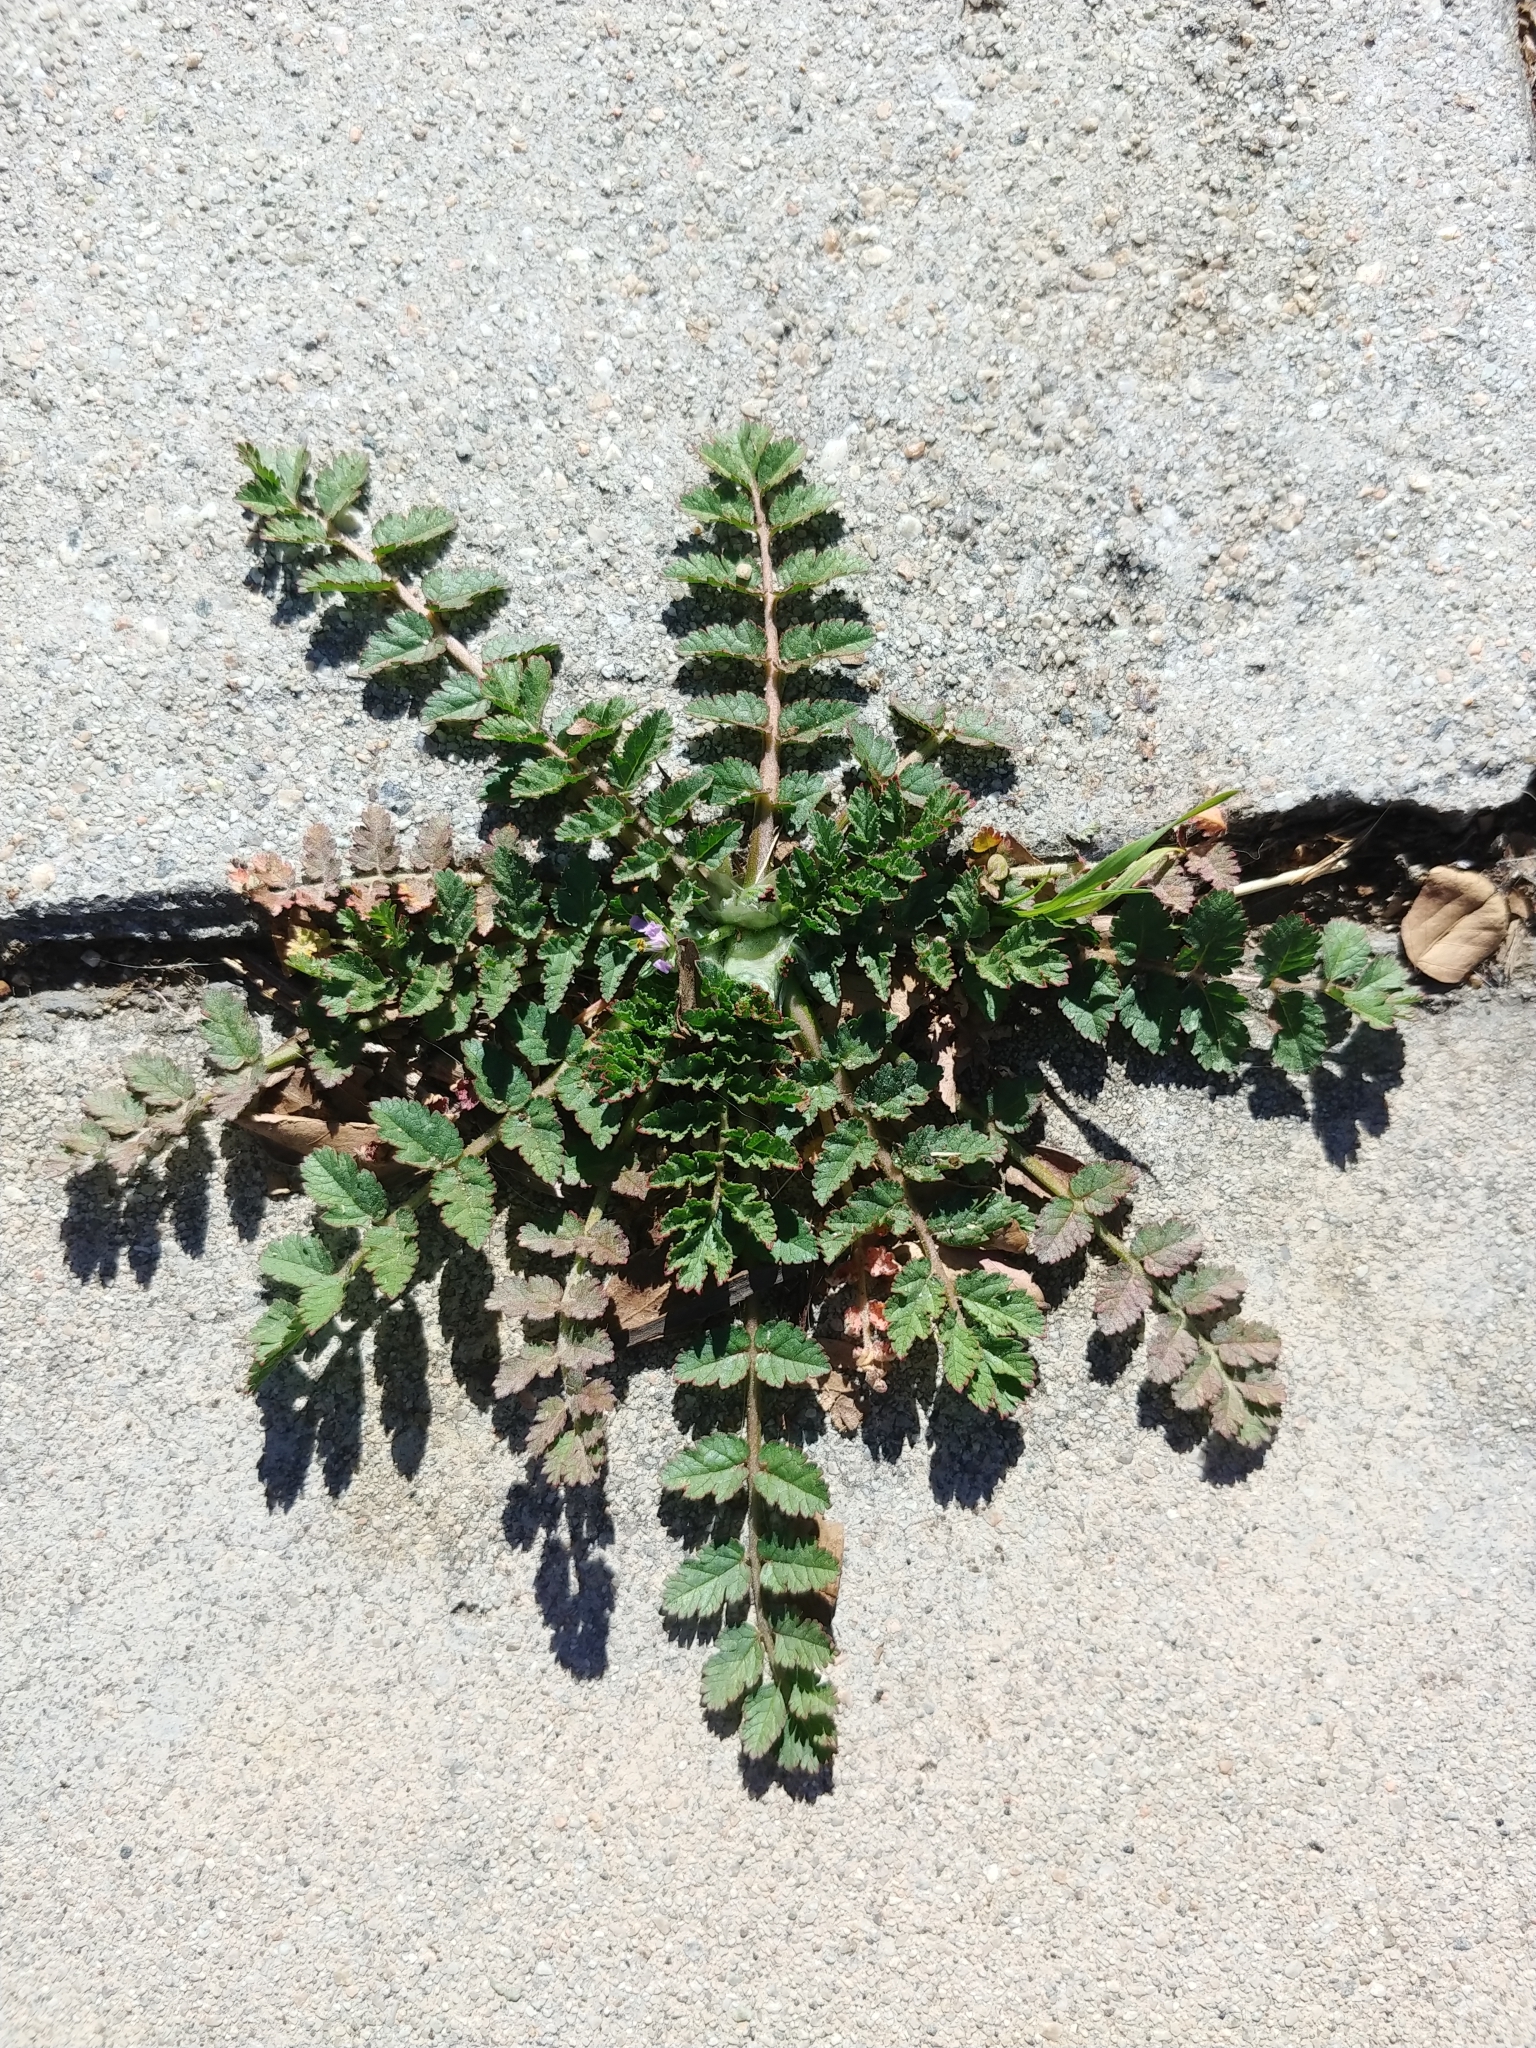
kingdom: Plantae
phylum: Tracheophyta
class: Magnoliopsida
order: Geraniales
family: Geraniaceae
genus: Erodium
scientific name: Erodium moschatum
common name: Musk stork's-bill
